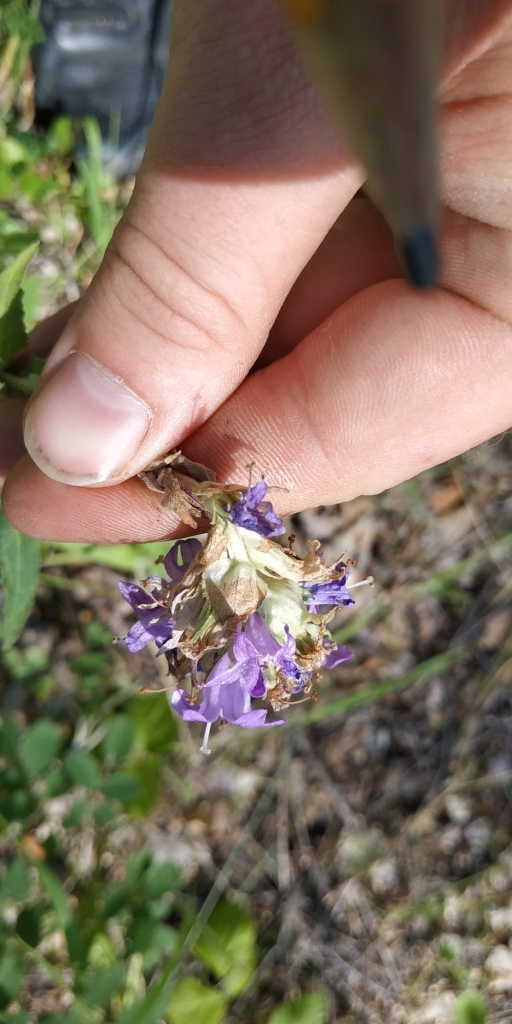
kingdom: Plantae
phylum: Tracheophyta
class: Magnoliopsida
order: Asterales
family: Campanulaceae
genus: Campanula
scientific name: Campanula glomerata
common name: Clustered bellflower
